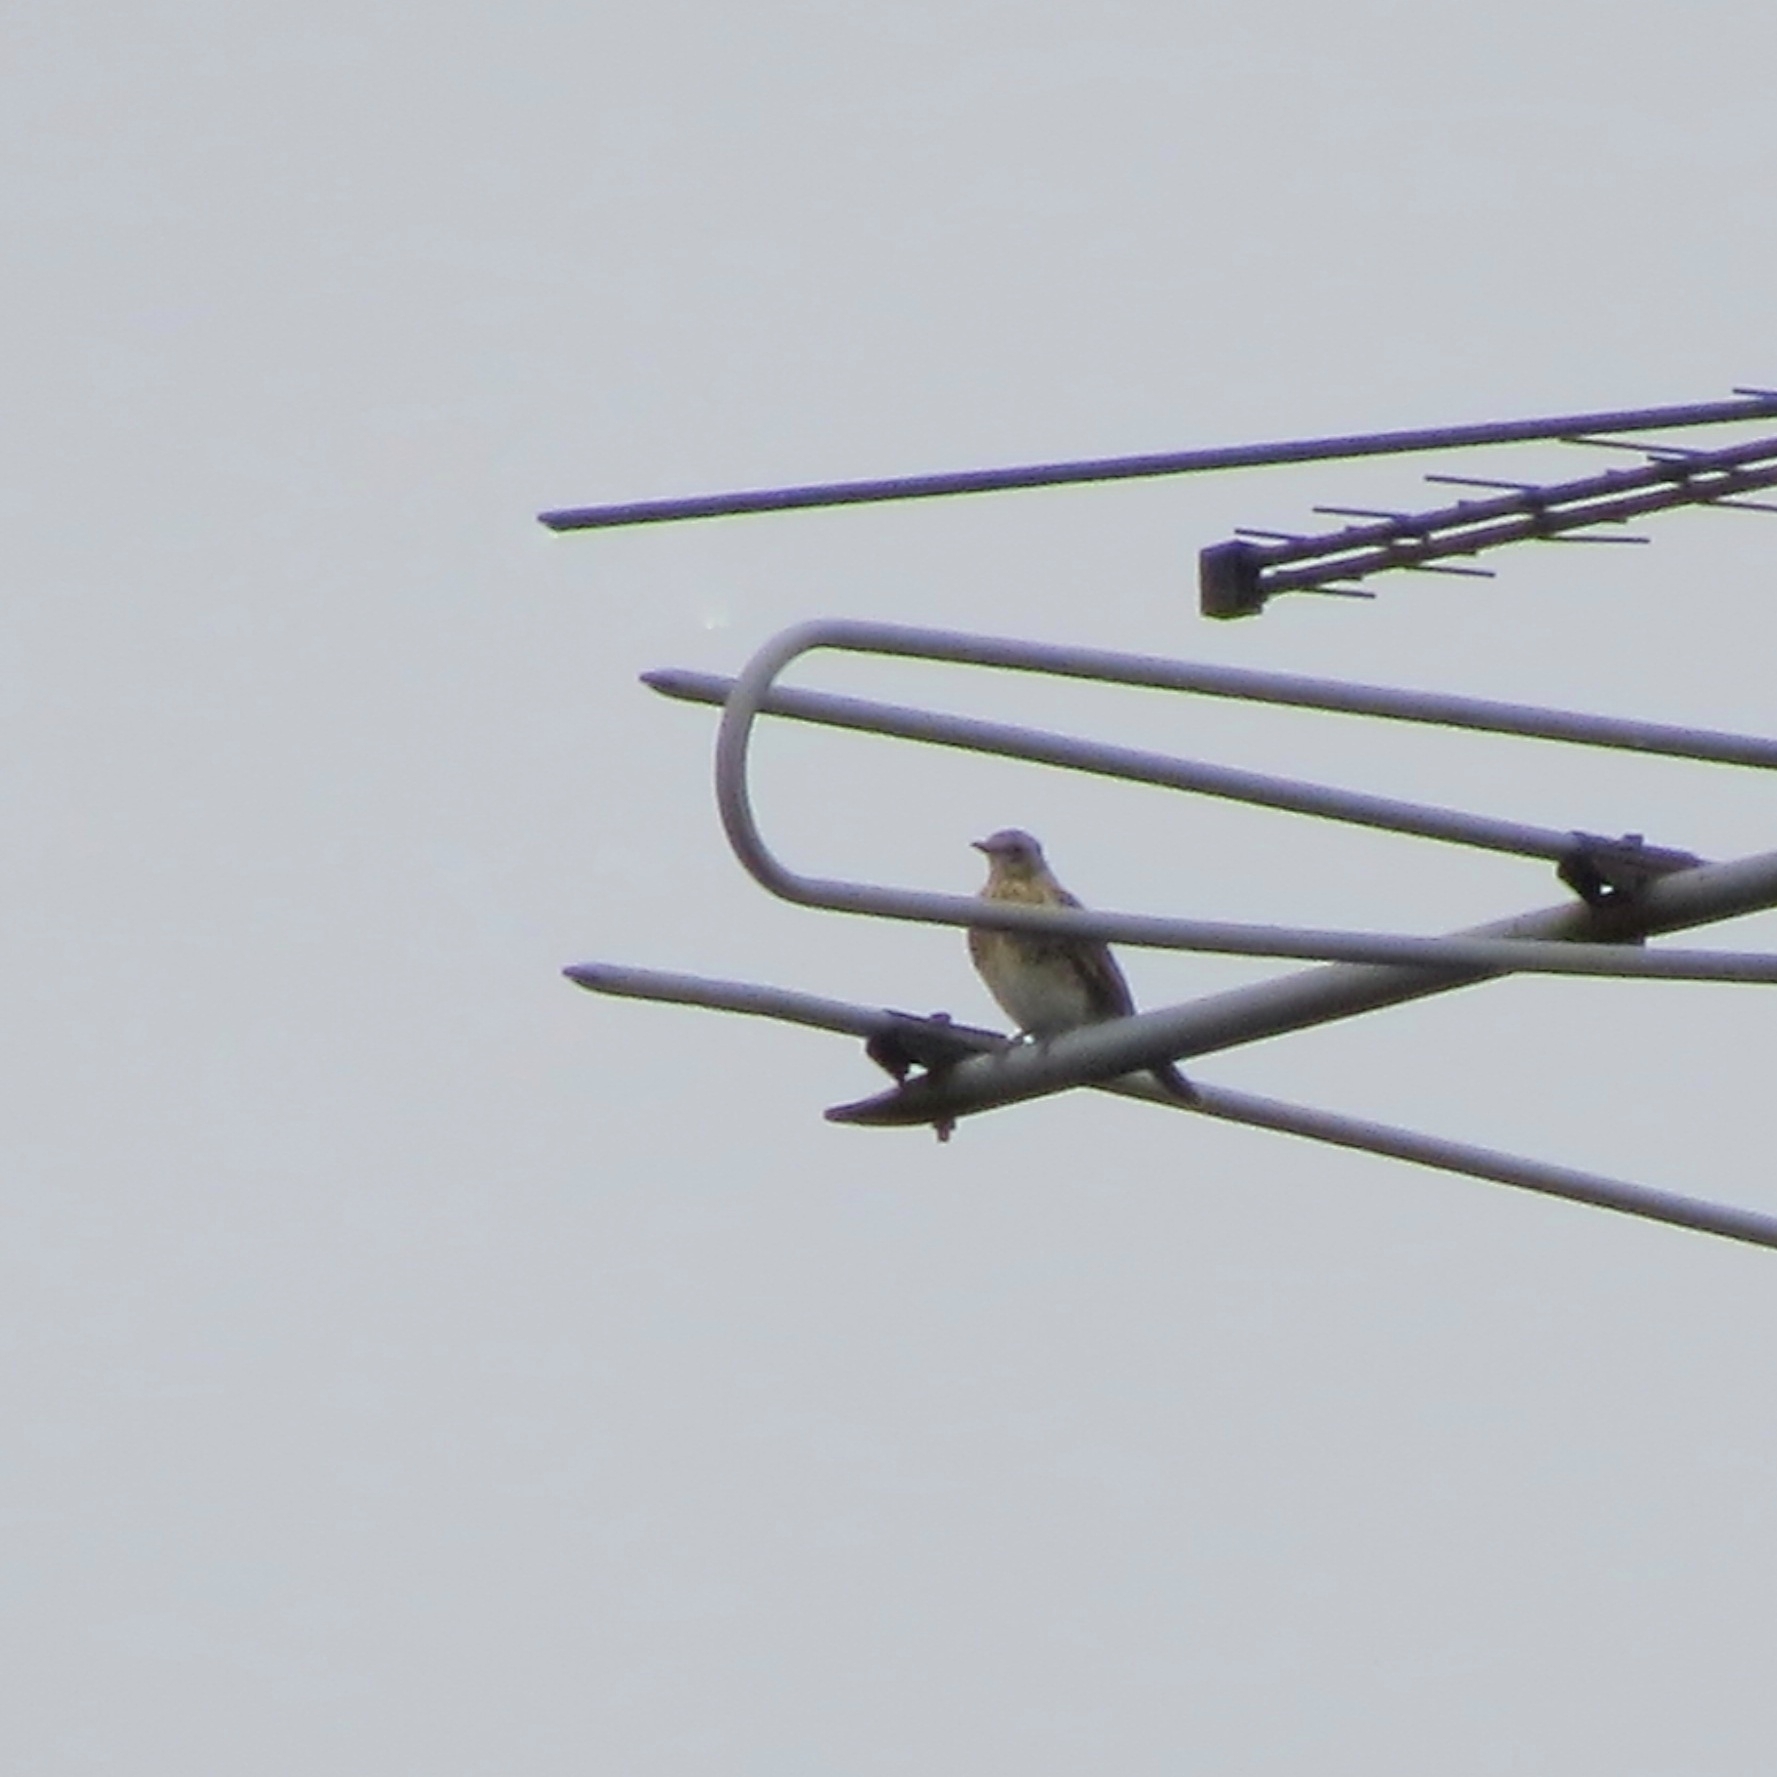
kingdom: Animalia
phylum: Chordata
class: Aves
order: Passeriformes
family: Turdidae
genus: Turdus
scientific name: Turdus pilaris
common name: Fieldfare
